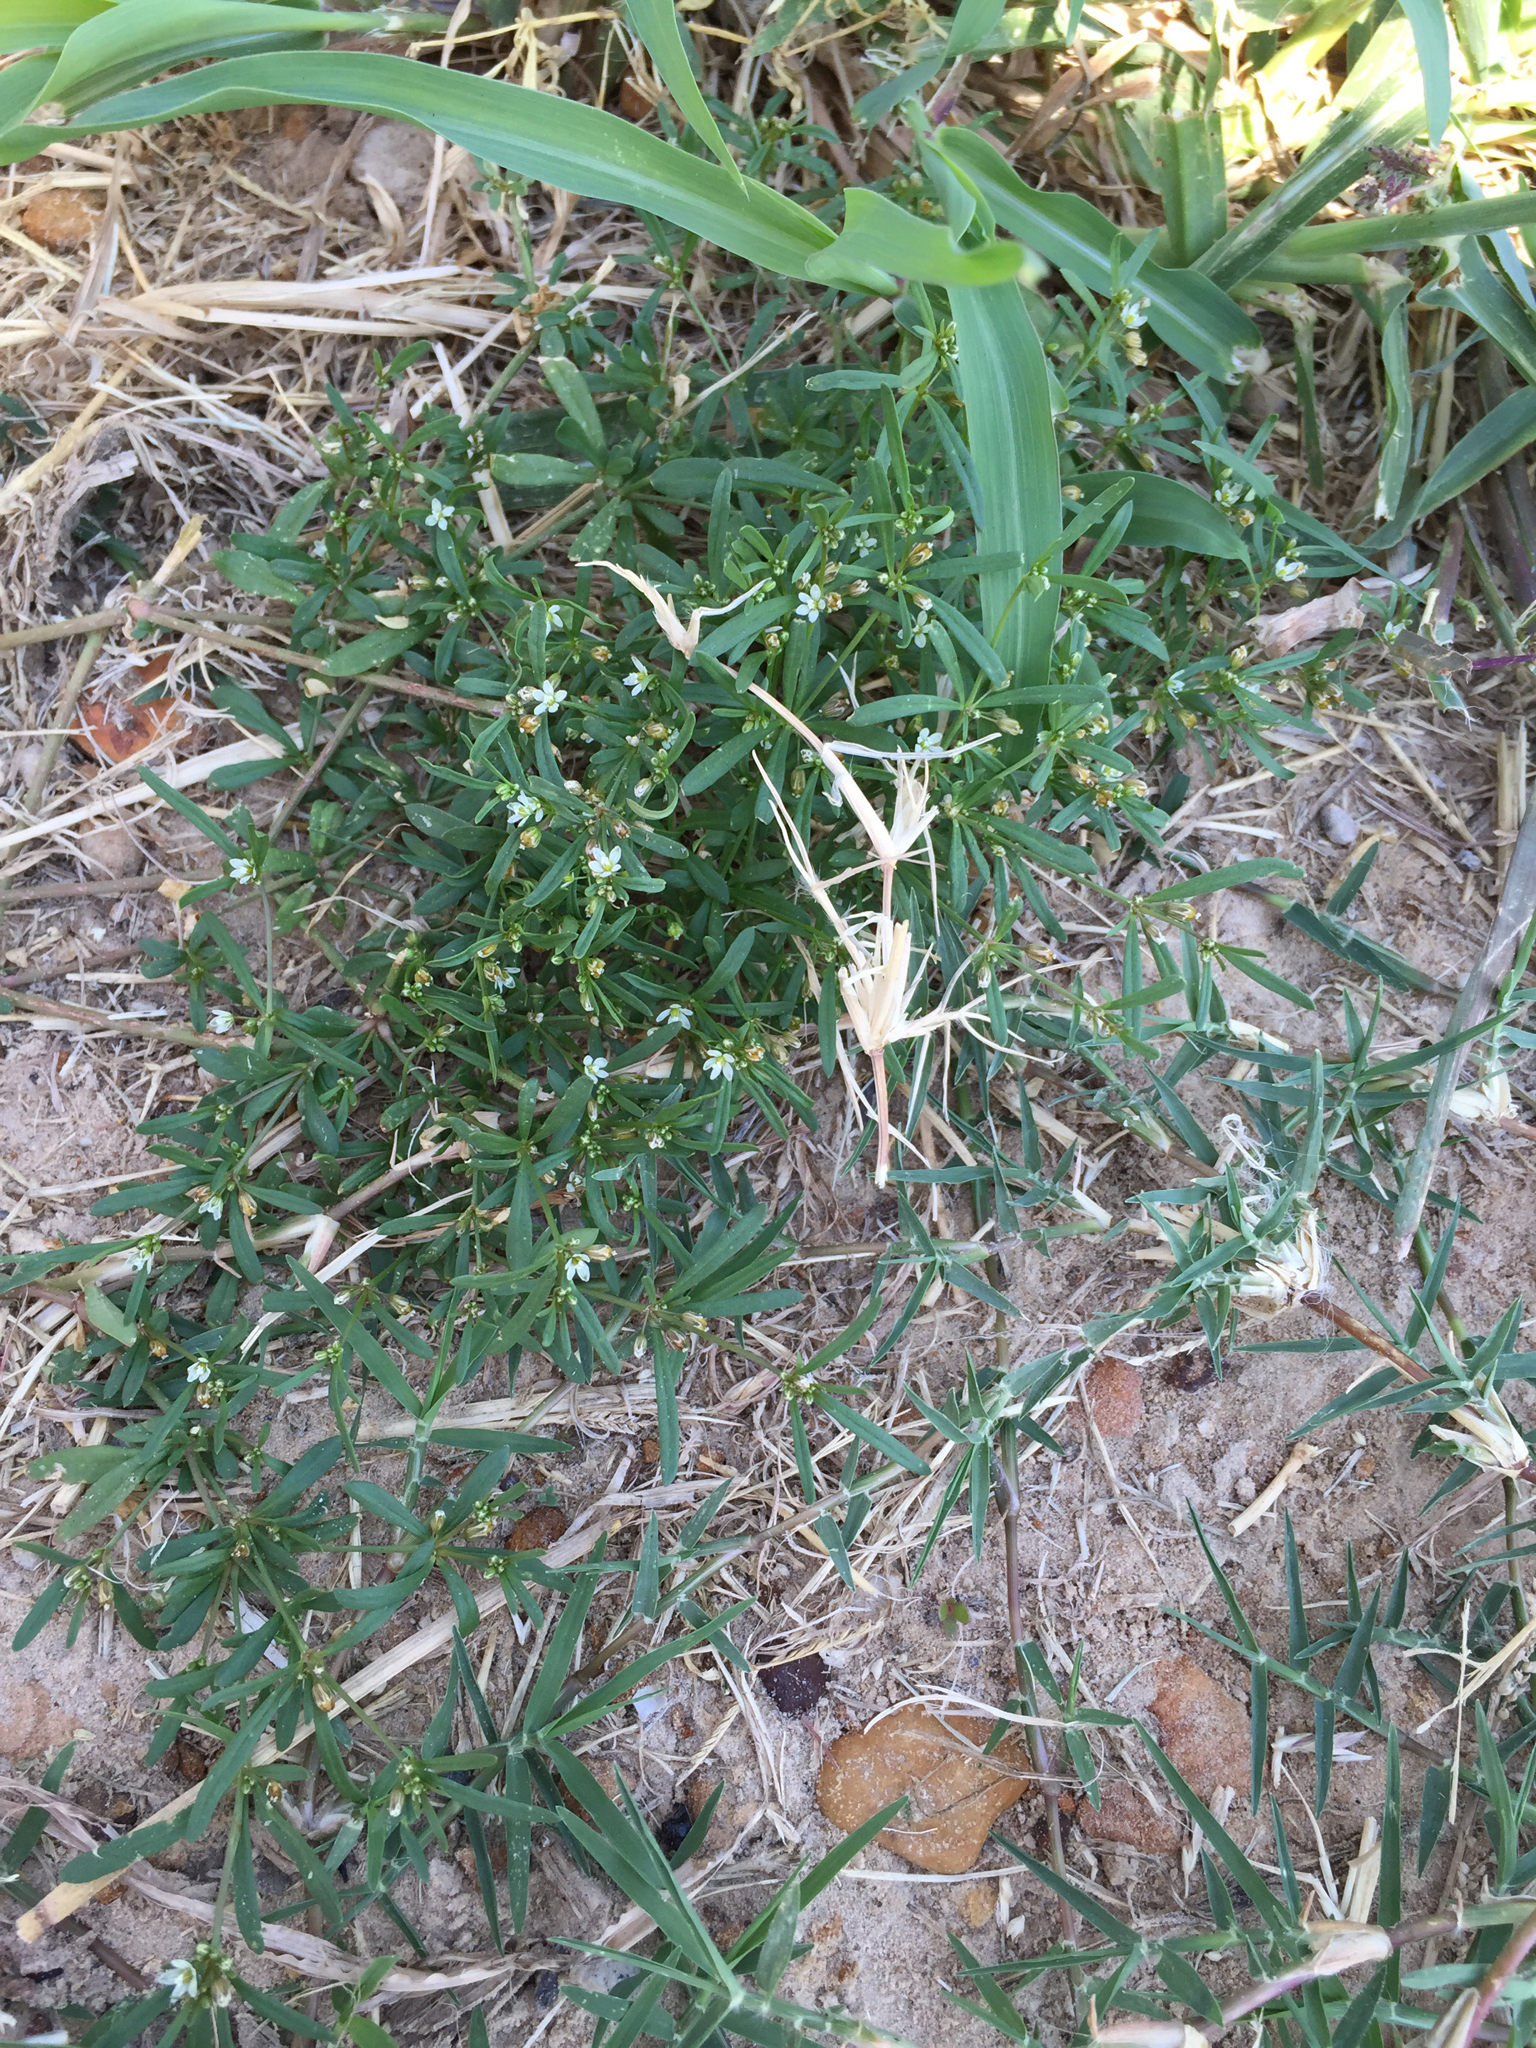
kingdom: Plantae
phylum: Tracheophyta
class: Magnoliopsida
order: Caryophyllales
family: Molluginaceae
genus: Mollugo
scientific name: Mollugo verticillata
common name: Green carpetweed
